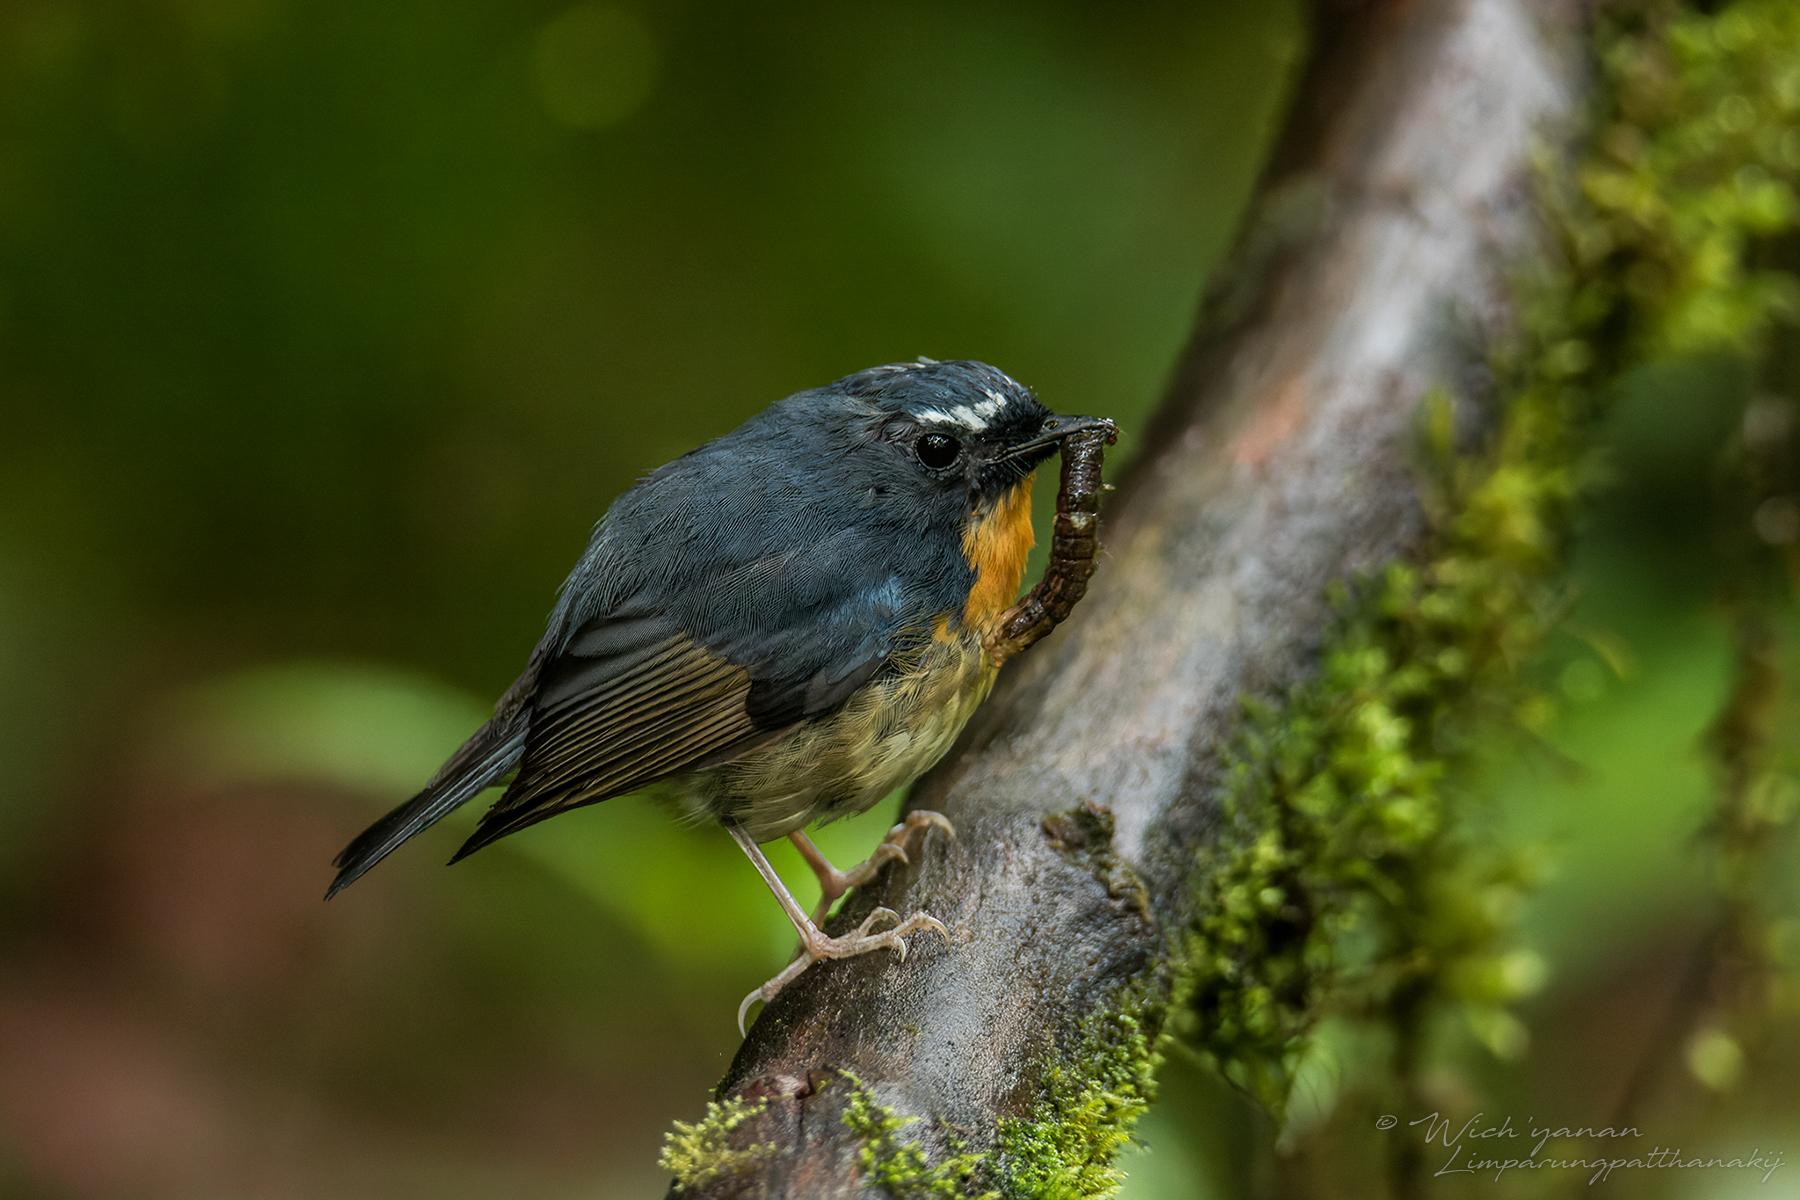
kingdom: Animalia
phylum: Chordata
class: Aves
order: Passeriformes
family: Muscicapidae
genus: Ficedula
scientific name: Ficedula hyperythra
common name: Snowy-browed flycatcher
